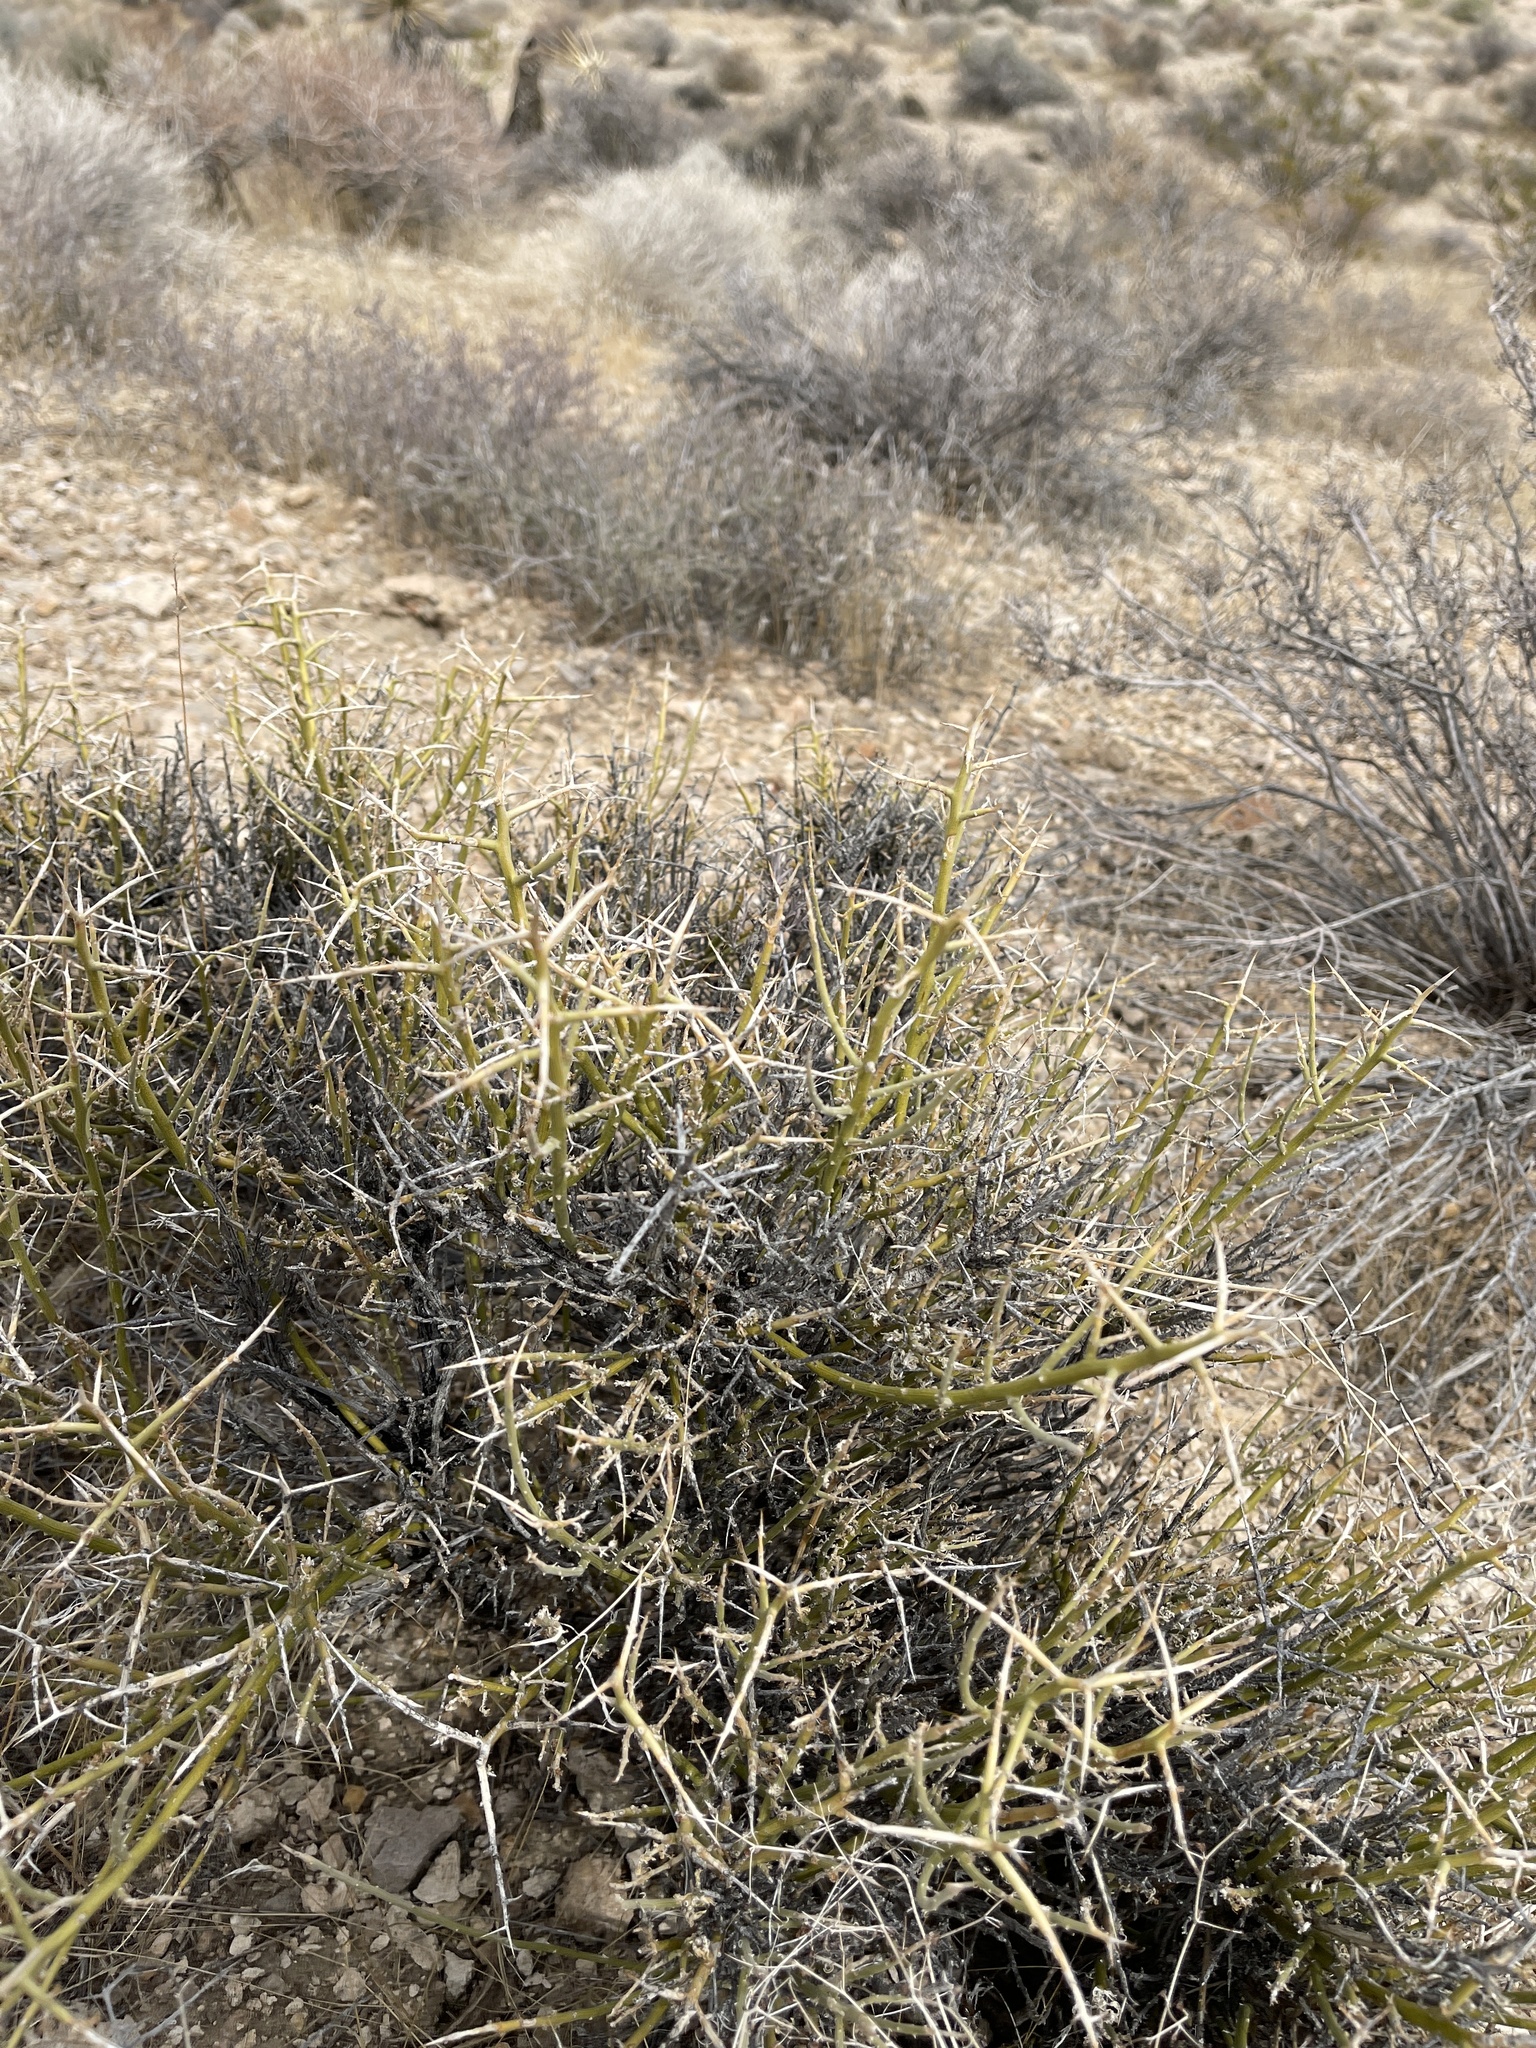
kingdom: Plantae
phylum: Tracheophyta
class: Magnoliopsida
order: Lamiales
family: Oleaceae
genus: Menodora
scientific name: Menodora spinescens
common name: Spiny menodora
